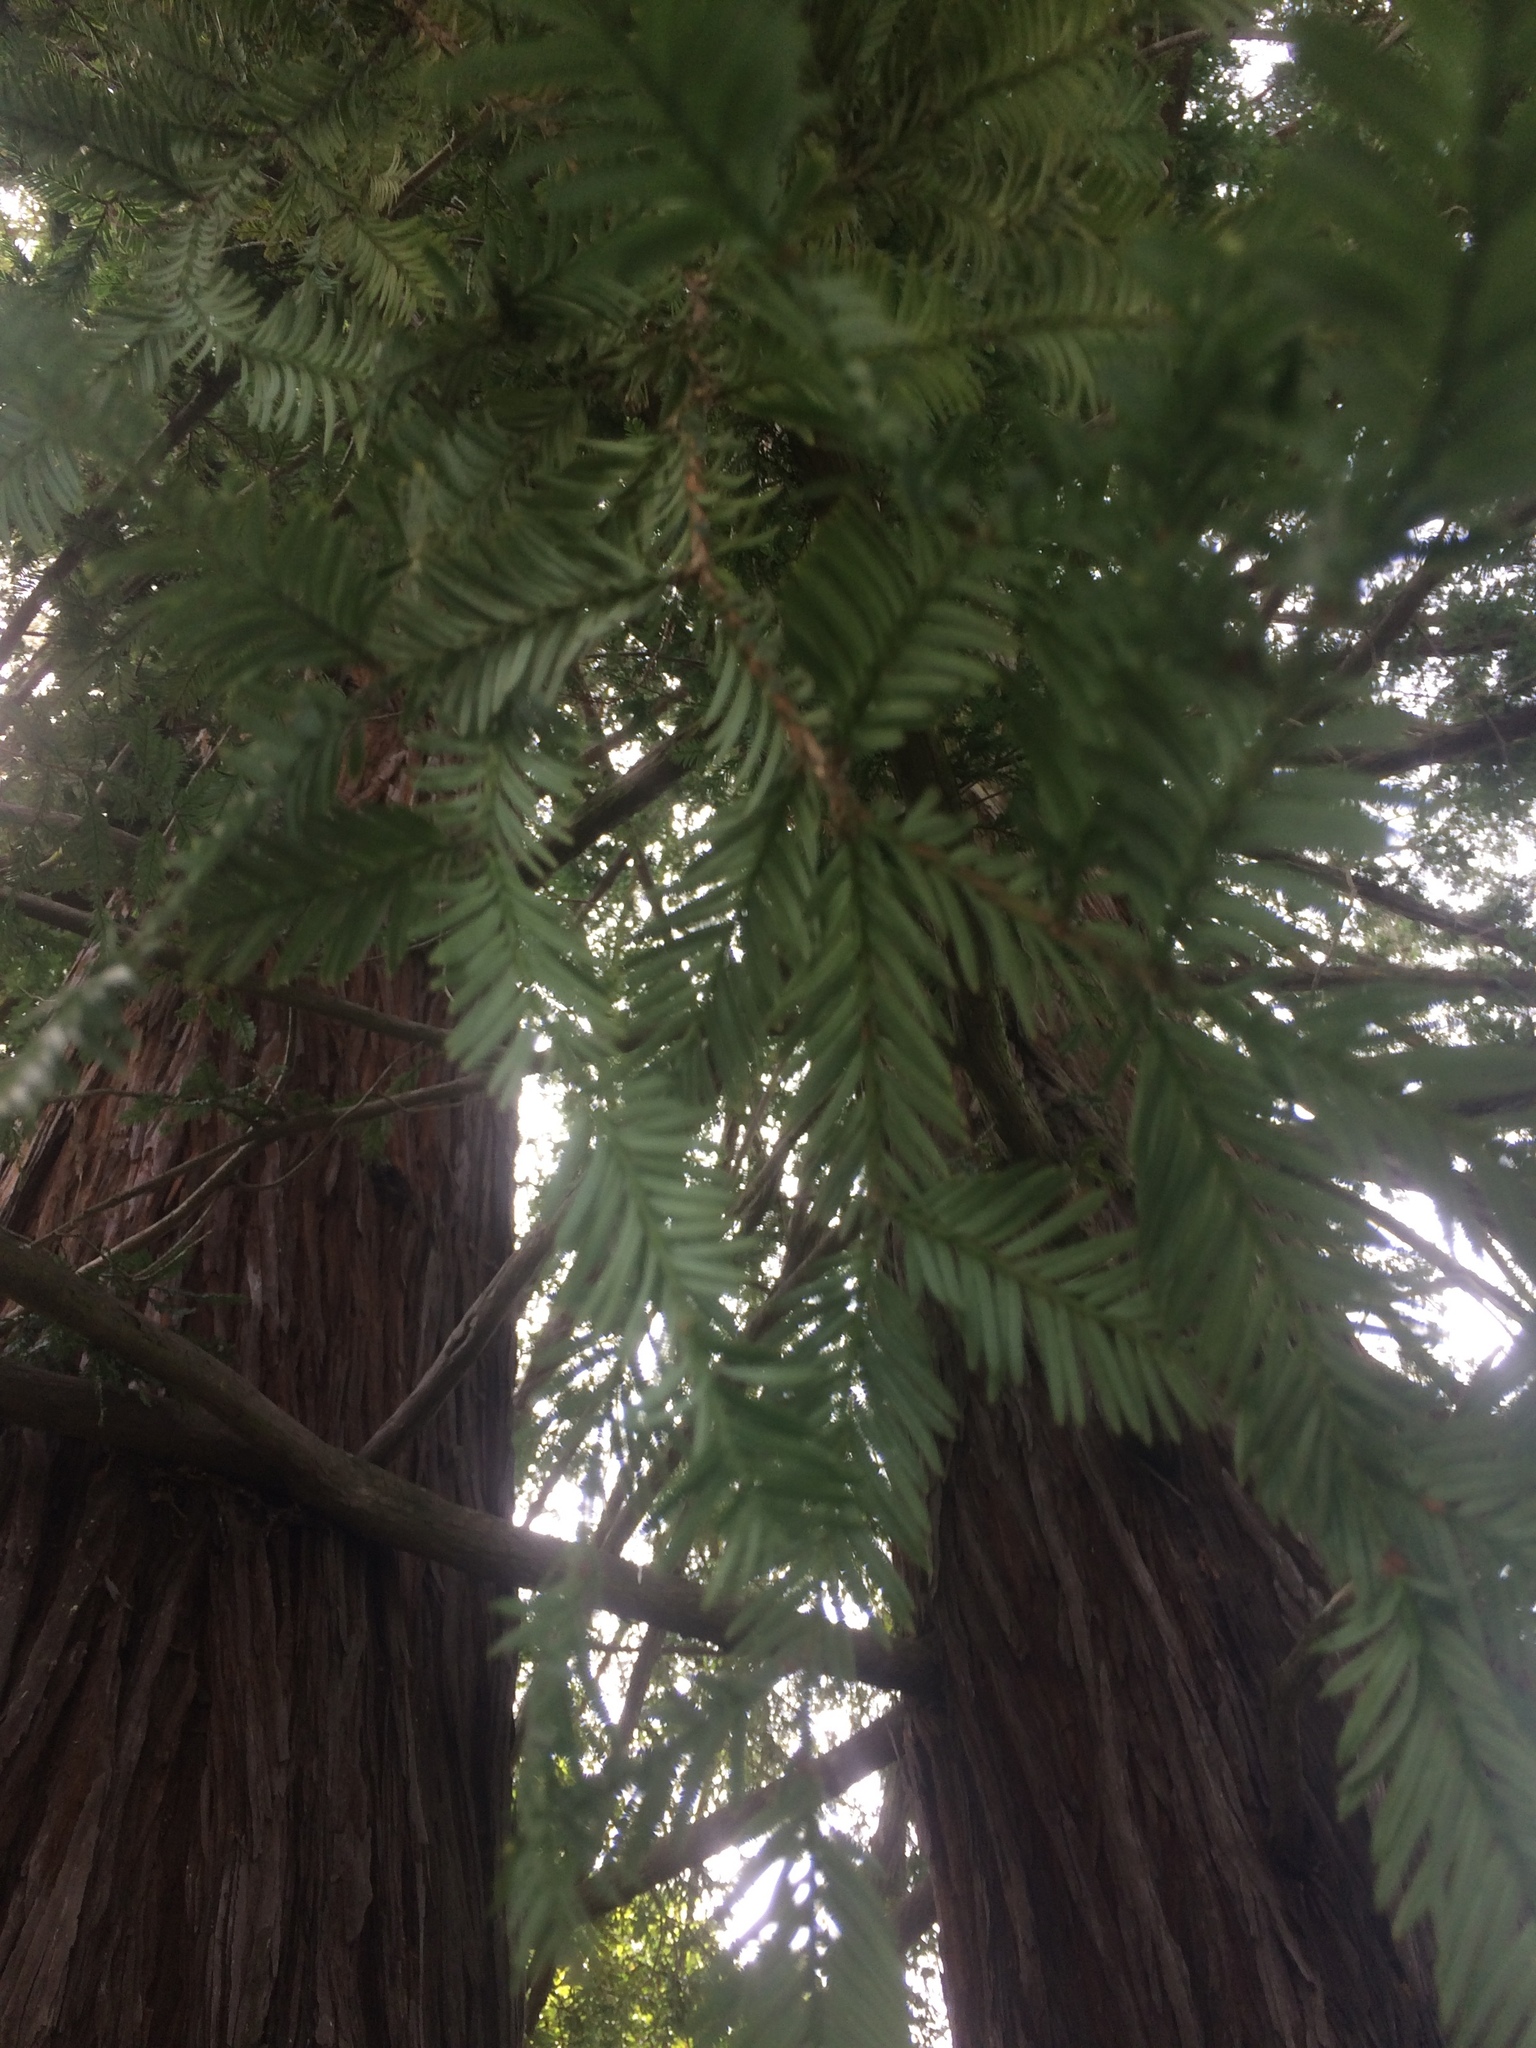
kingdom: Plantae
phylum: Tracheophyta
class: Pinopsida
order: Pinales
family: Cupressaceae
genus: Sequoia
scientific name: Sequoia sempervirens
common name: Coast redwood
